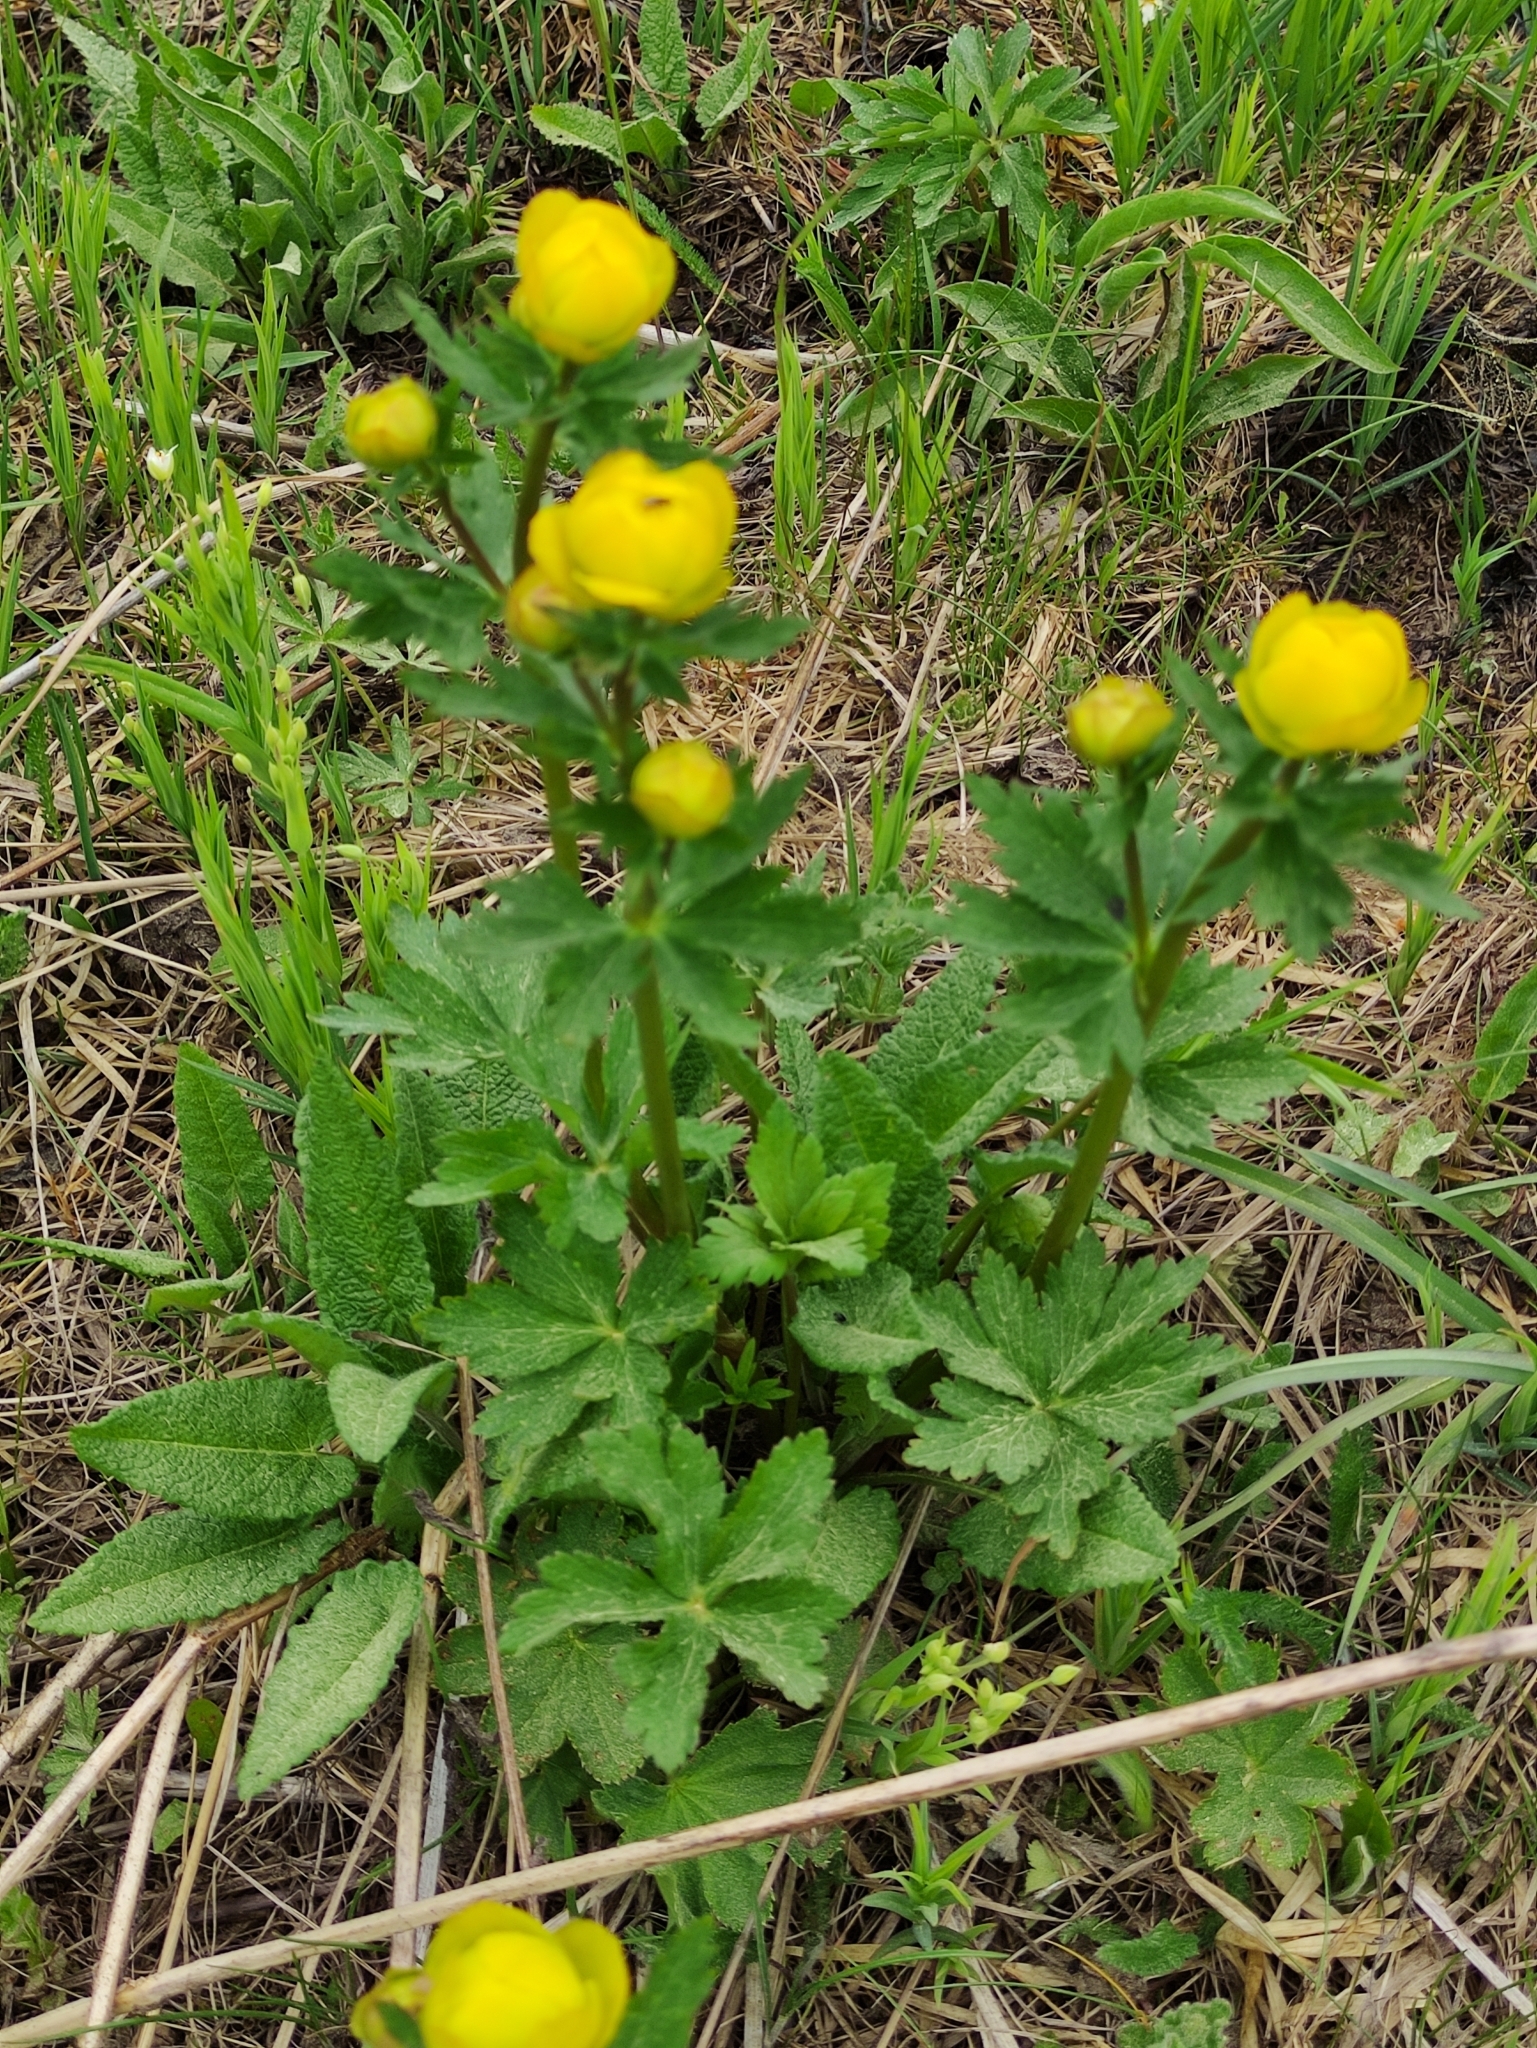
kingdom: Plantae
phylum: Tracheophyta
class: Magnoliopsida
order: Ranunculales
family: Ranunculaceae
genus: Trollius
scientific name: Trollius europaeus
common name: European globeflower
